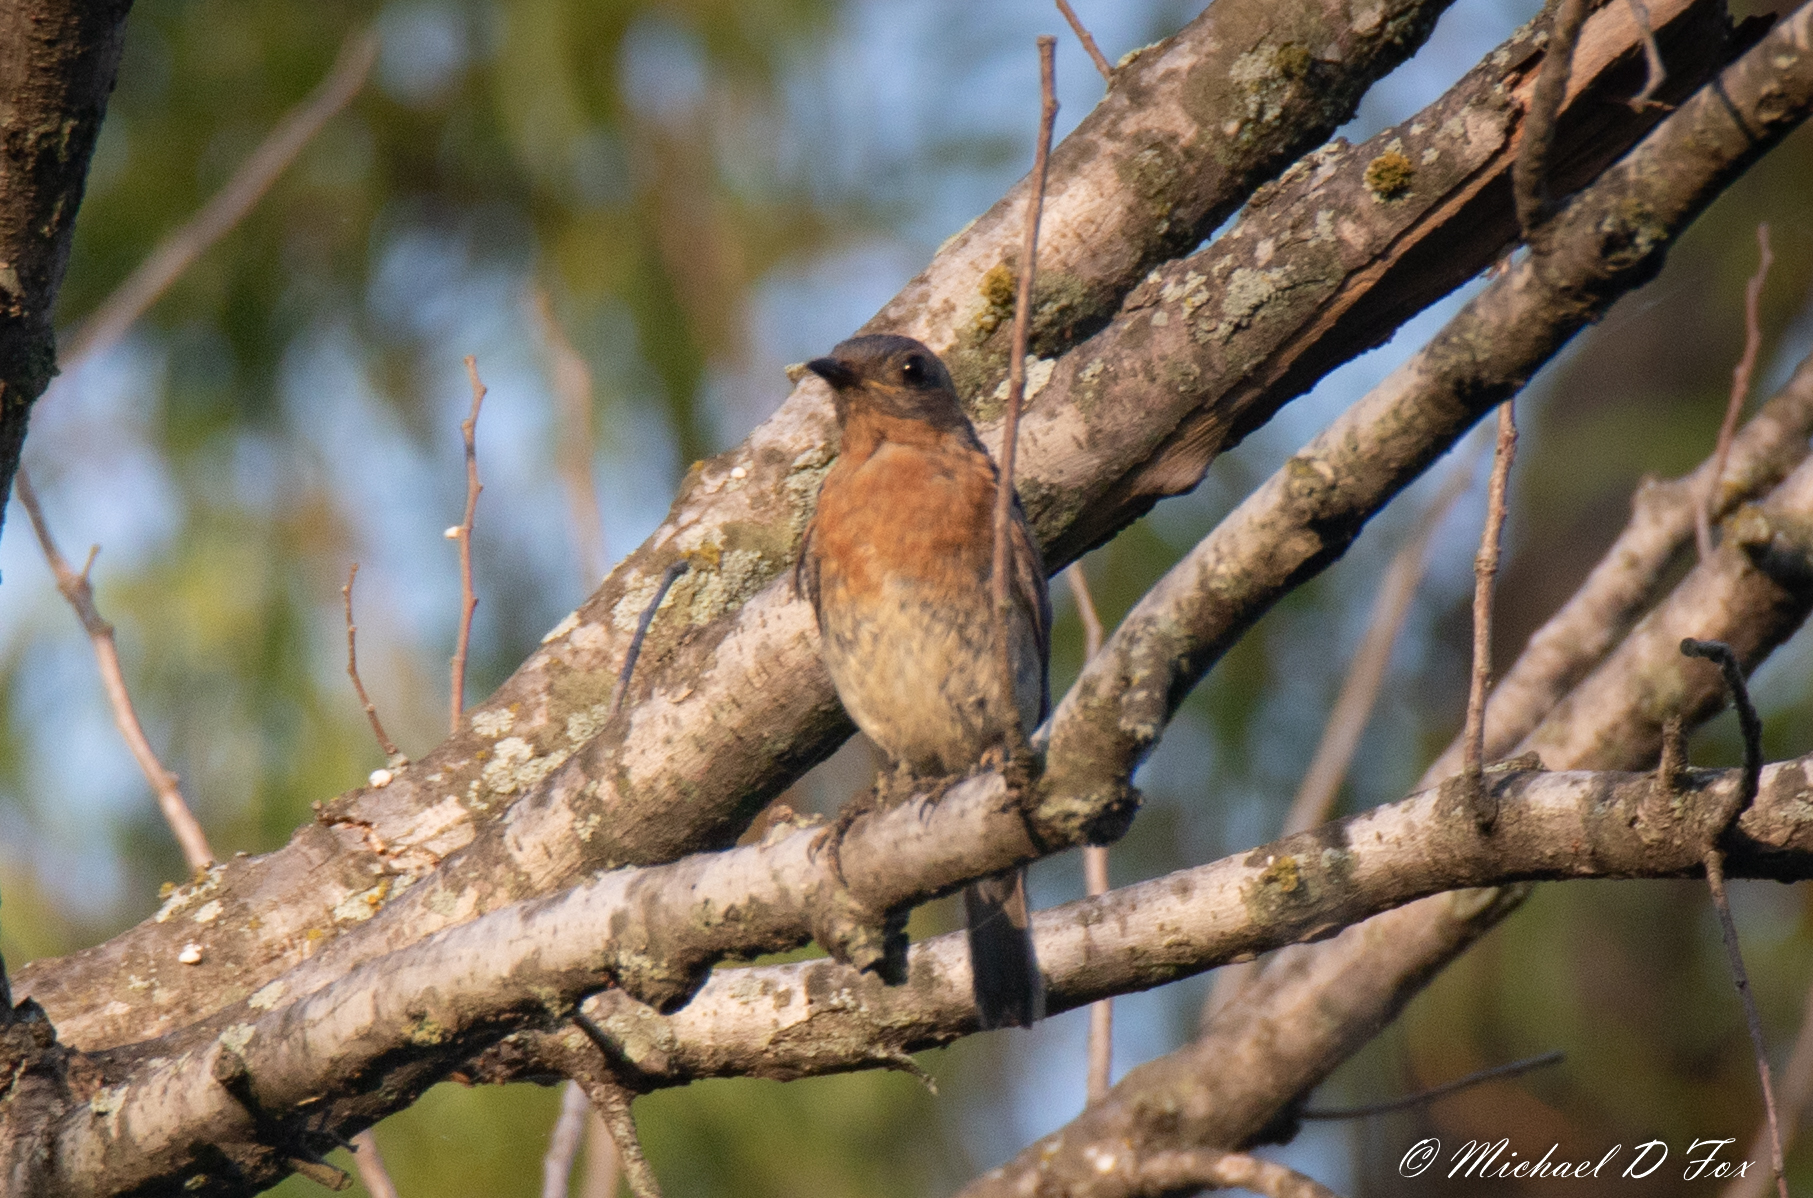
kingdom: Animalia
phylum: Chordata
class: Aves
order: Passeriformes
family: Turdidae
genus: Sialia
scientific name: Sialia sialis
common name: Eastern bluebird
